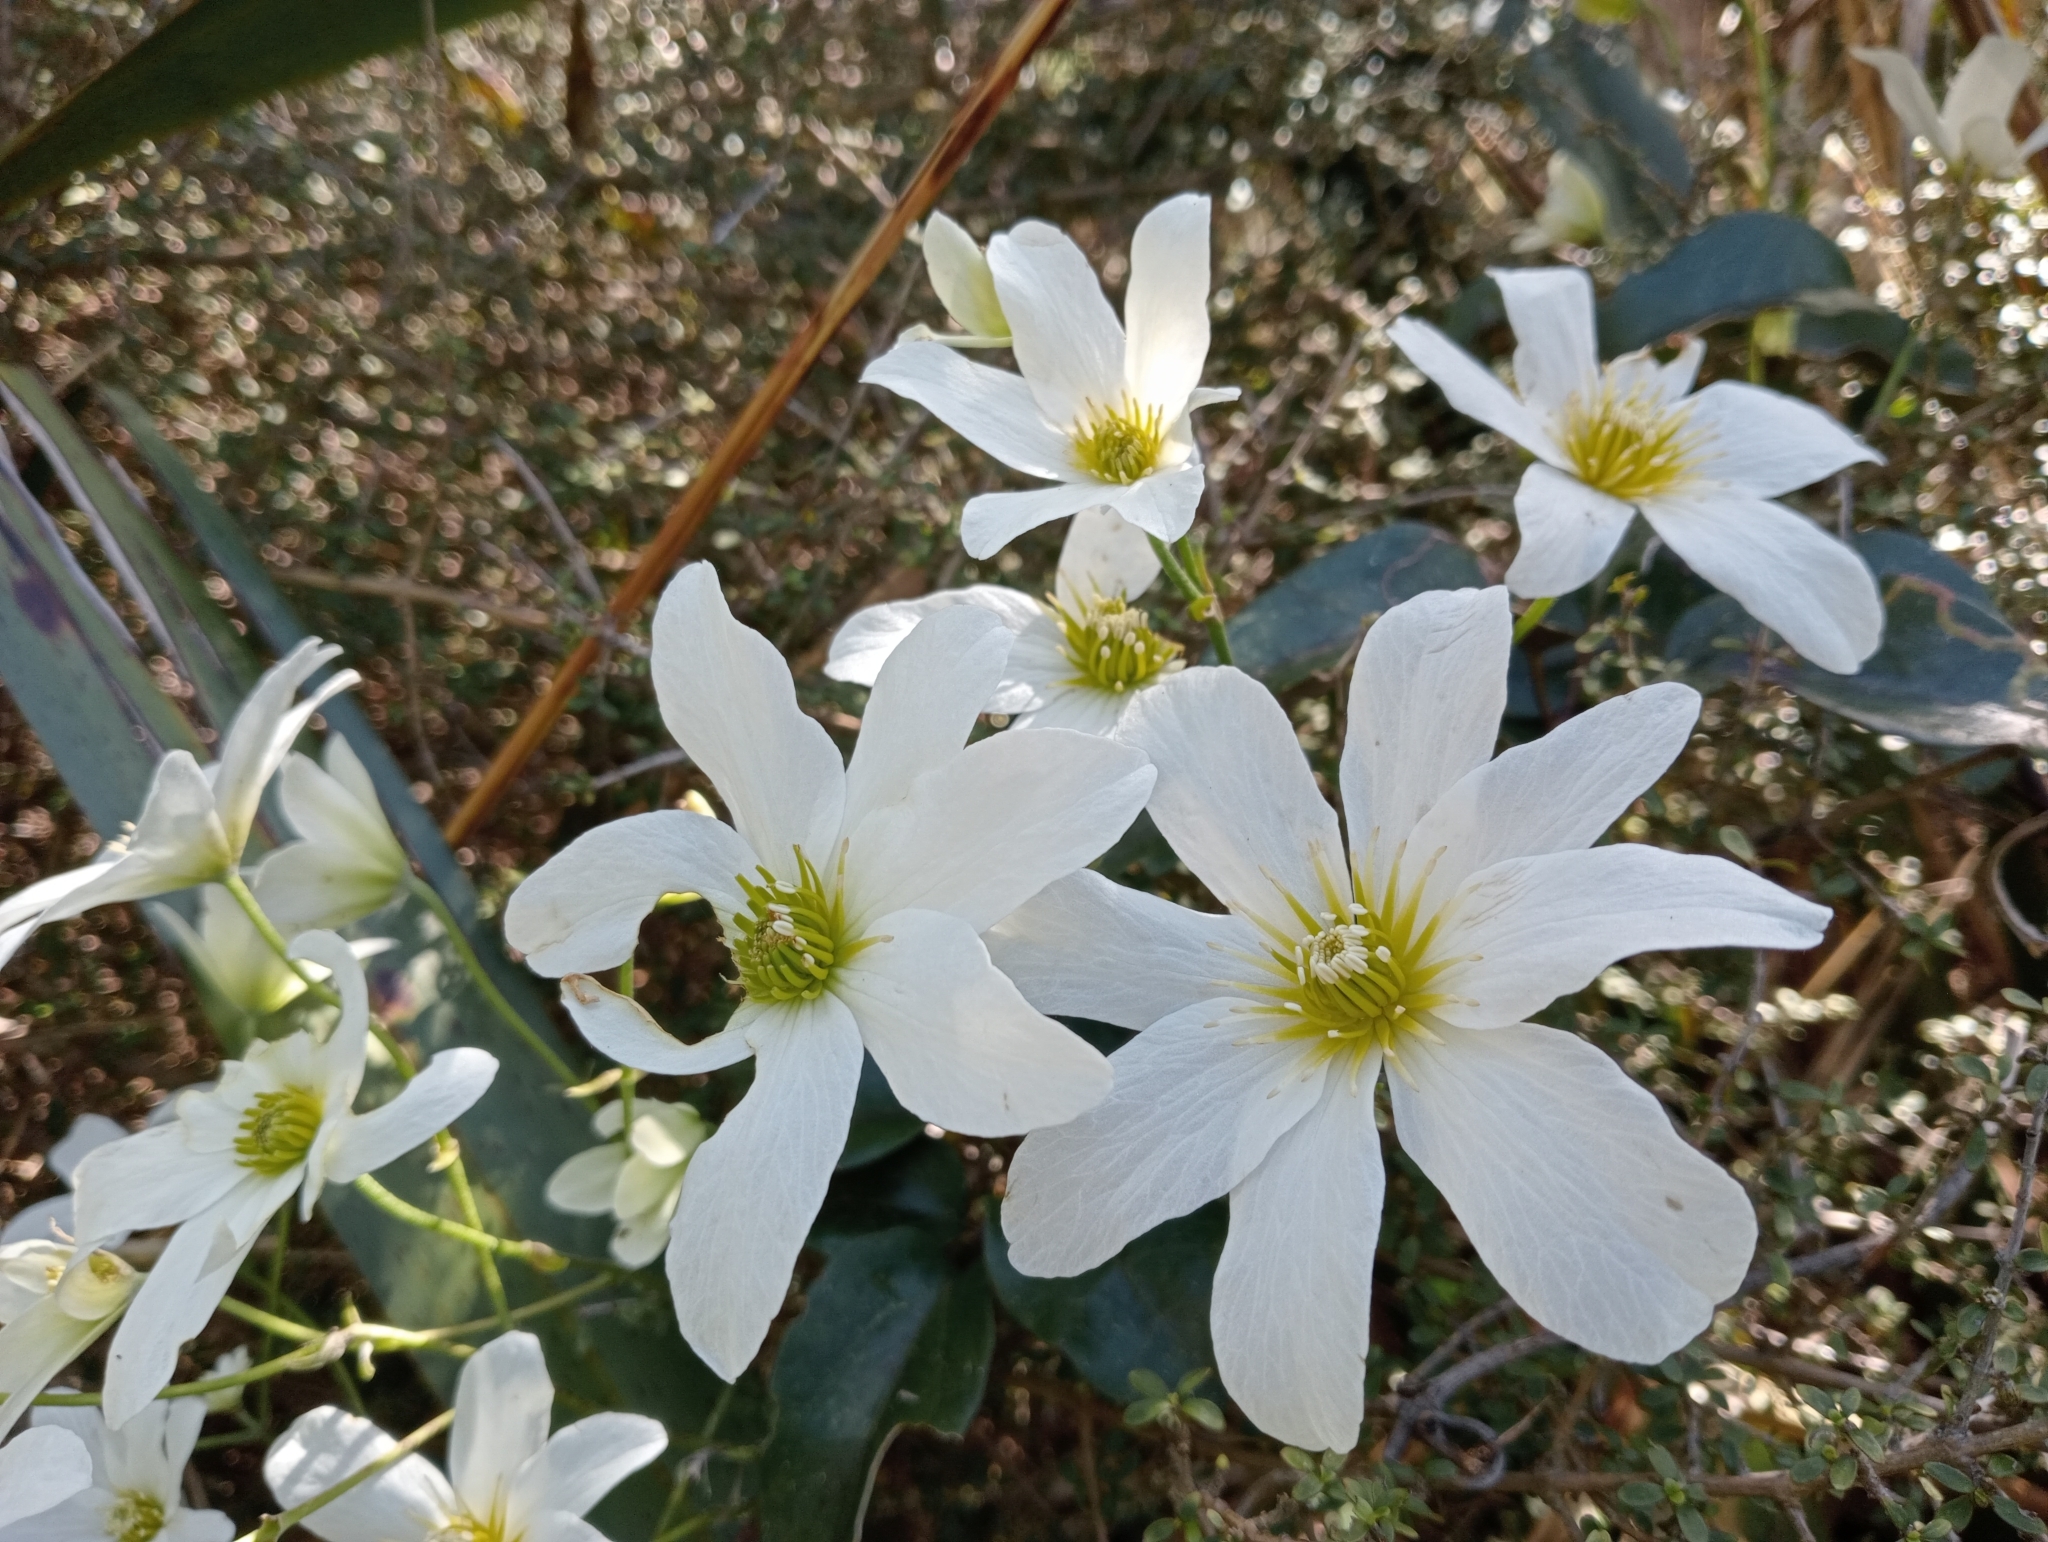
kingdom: Plantae
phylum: Tracheophyta
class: Magnoliopsida
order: Ranunculales
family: Ranunculaceae
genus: Clematis
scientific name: Clematis paniculata
